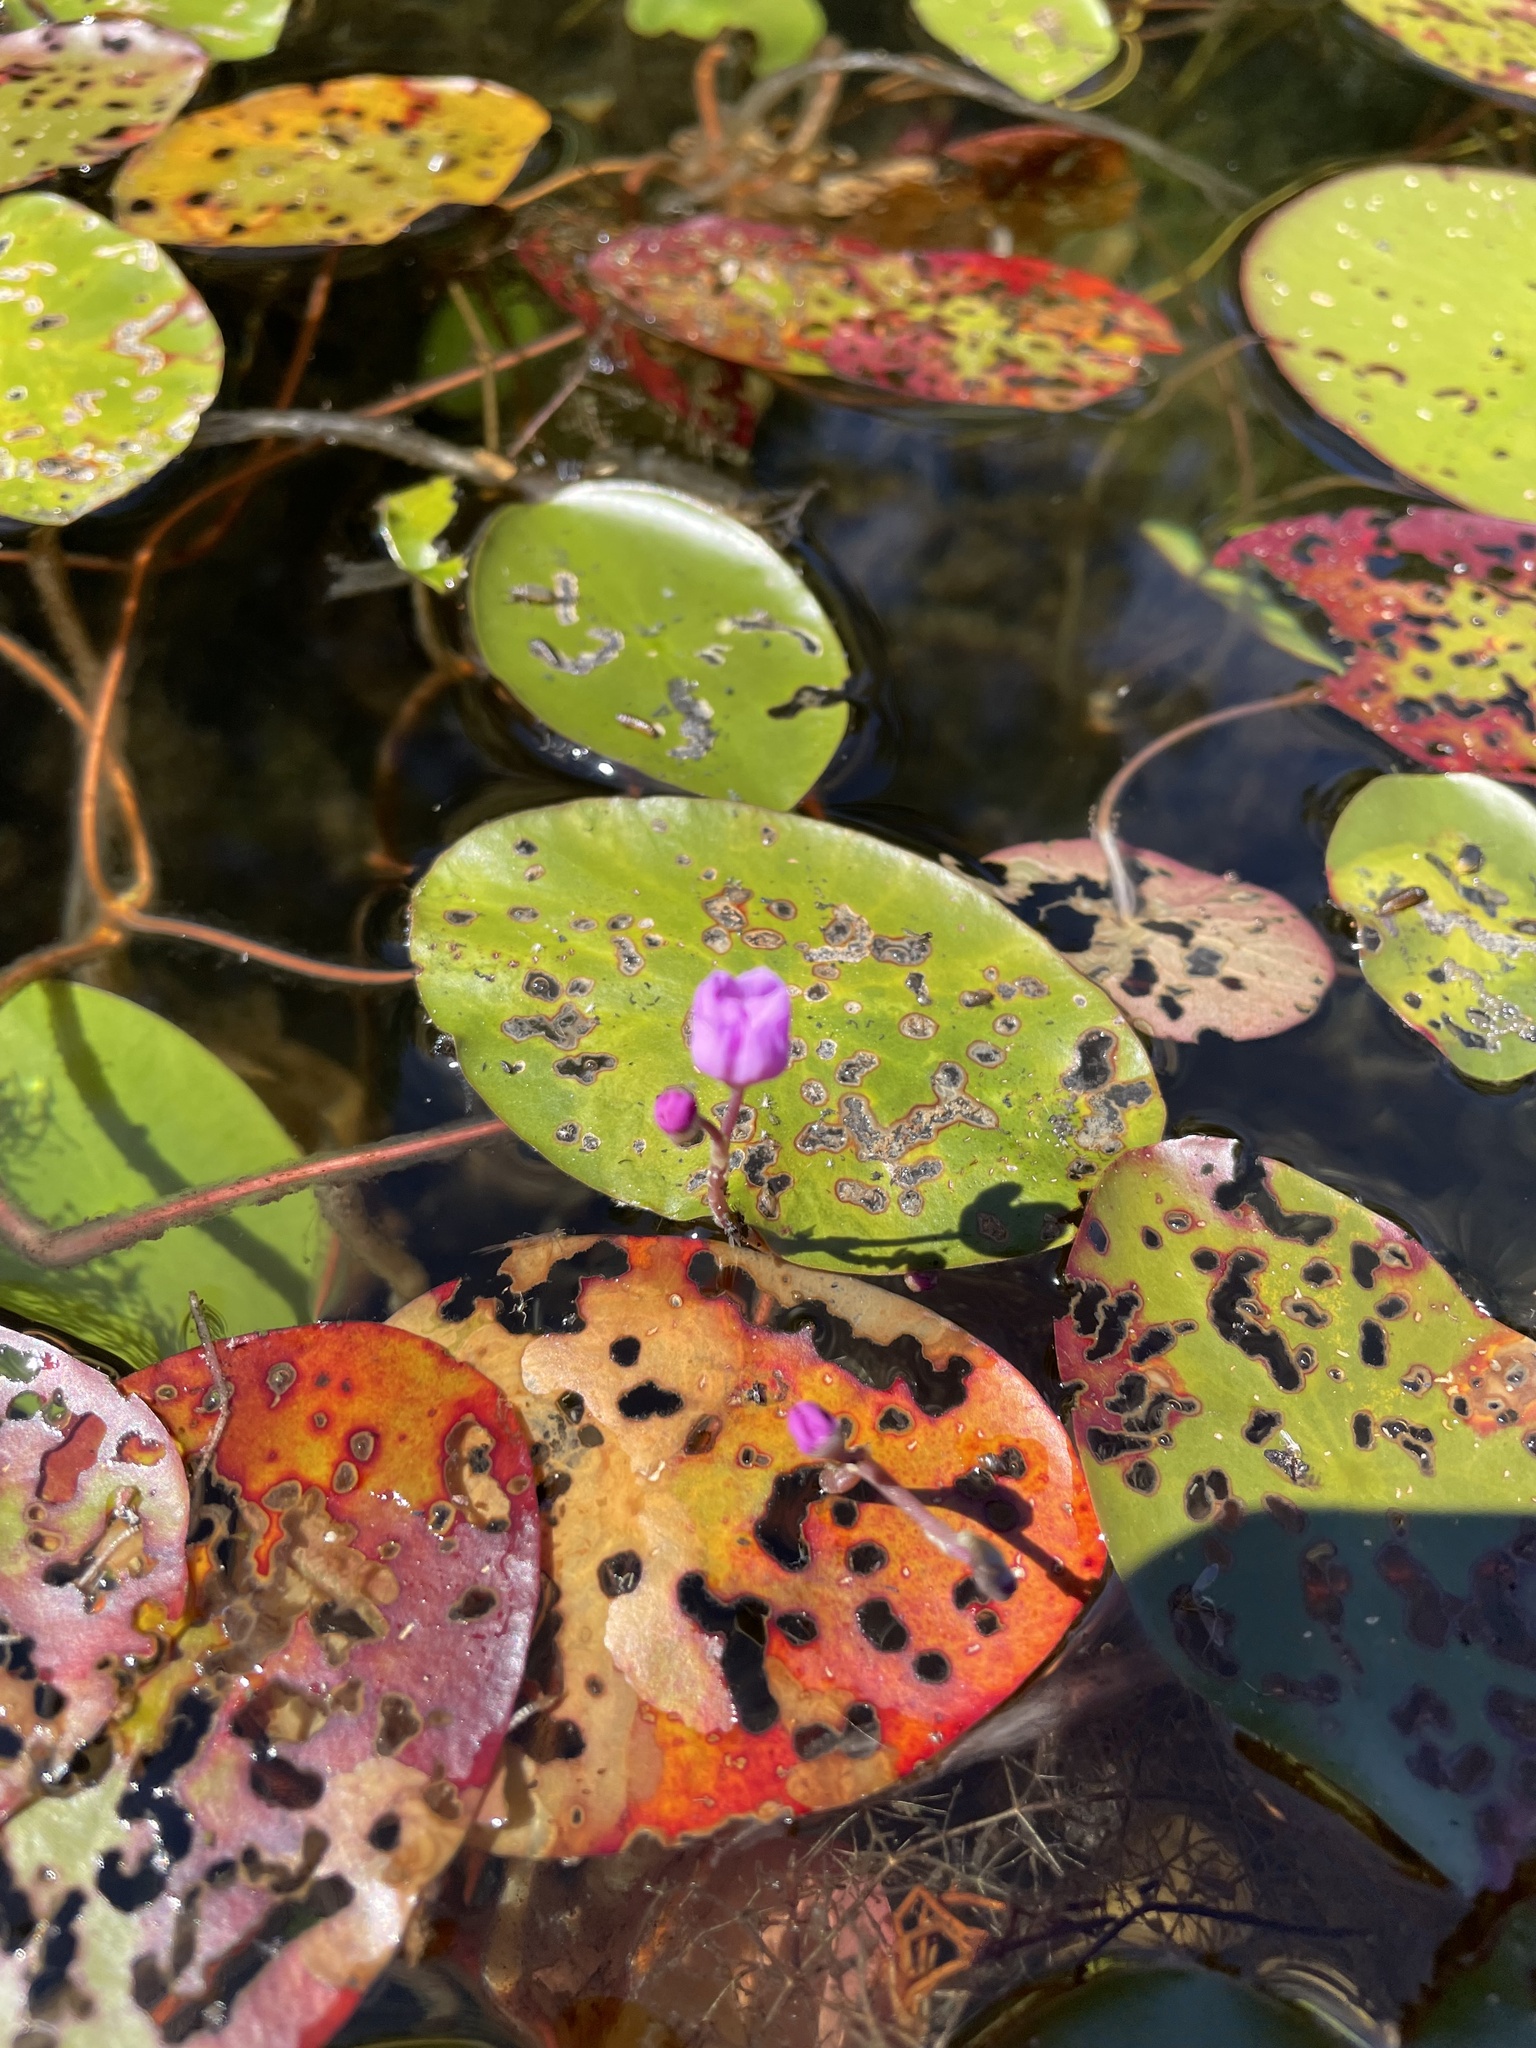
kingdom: Plantae
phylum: Tracheophyta
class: Magnoliopsida
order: Lamiales
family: Lentibulariaceae
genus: Utricularia
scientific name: Utricularia purpurea
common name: Eastern purple bladderwort
